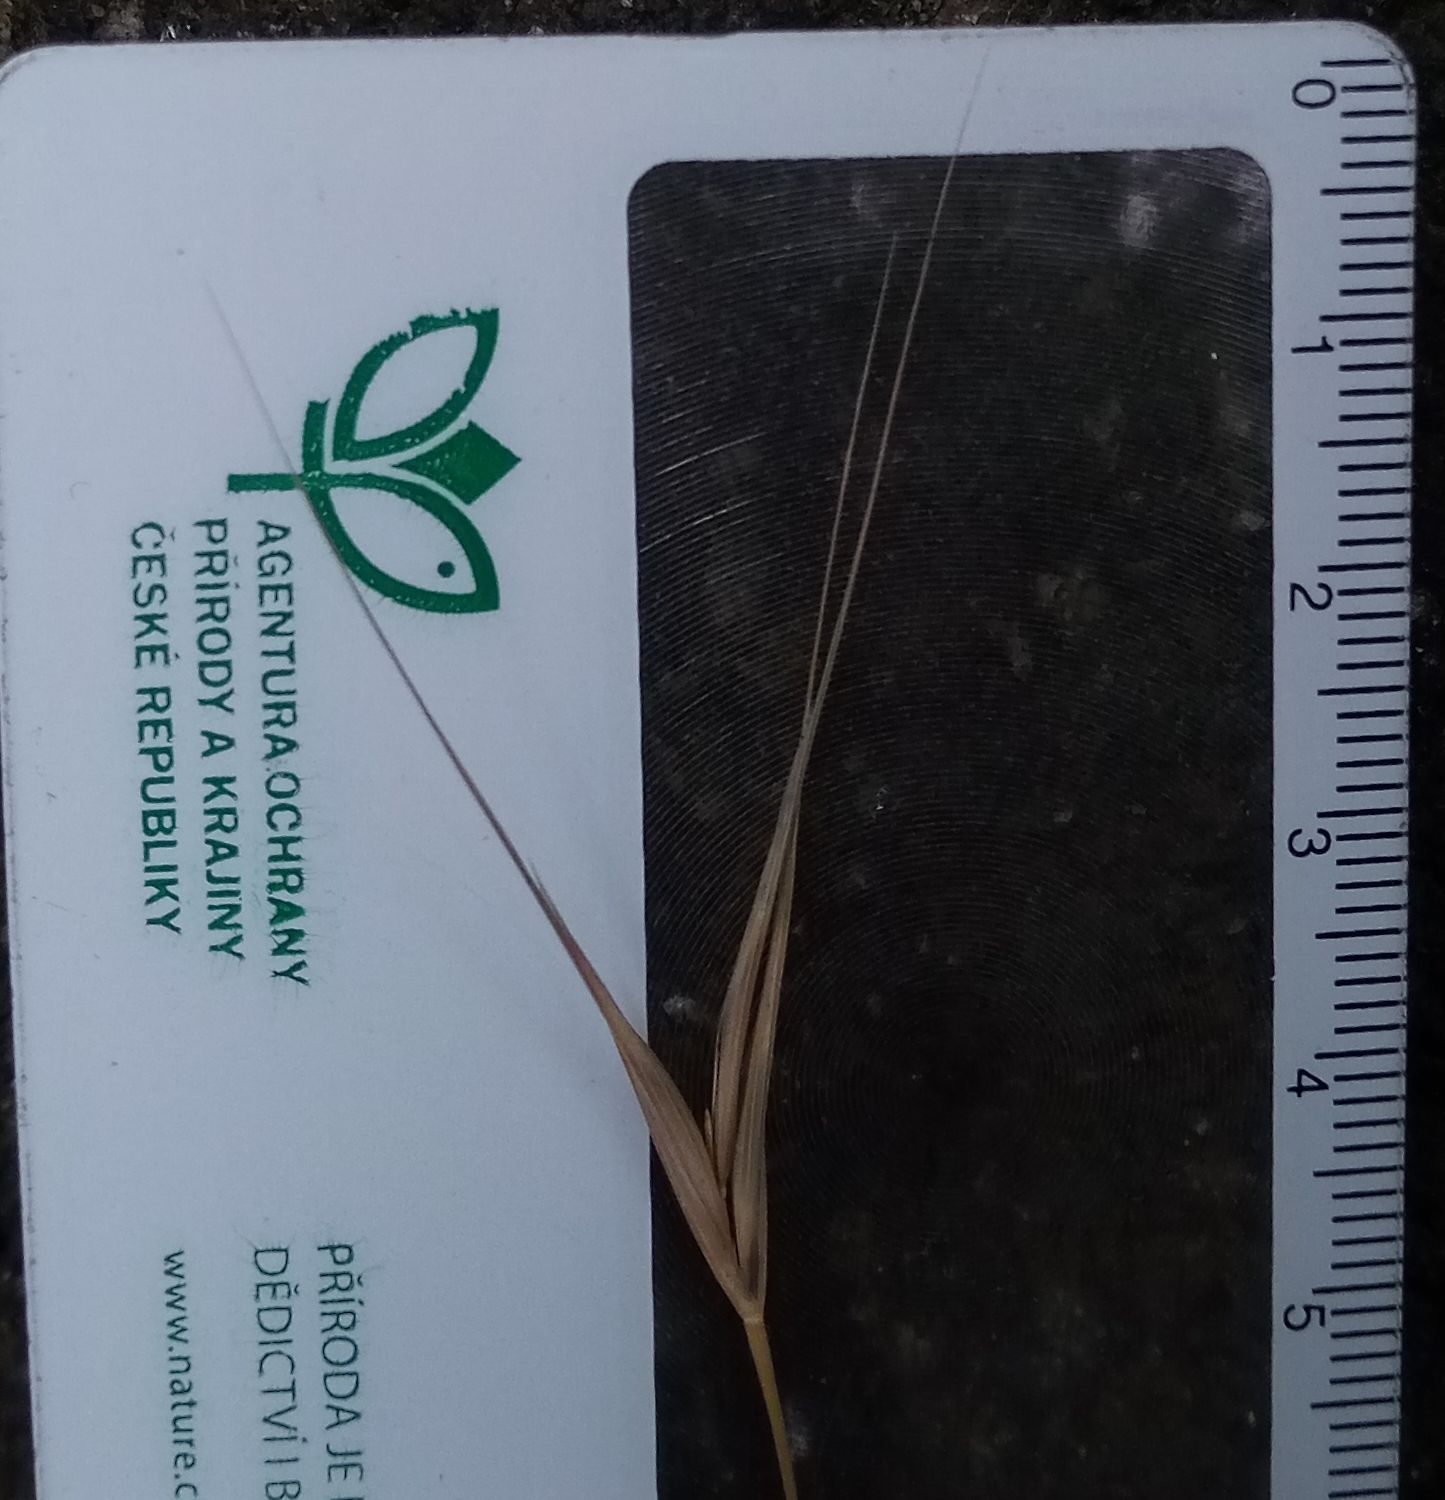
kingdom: Plantae
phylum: Tracheophyta
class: Liliopsida
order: Poales
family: Poaceae
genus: Bromus
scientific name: Bromus sterilis
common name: Poverty brome
